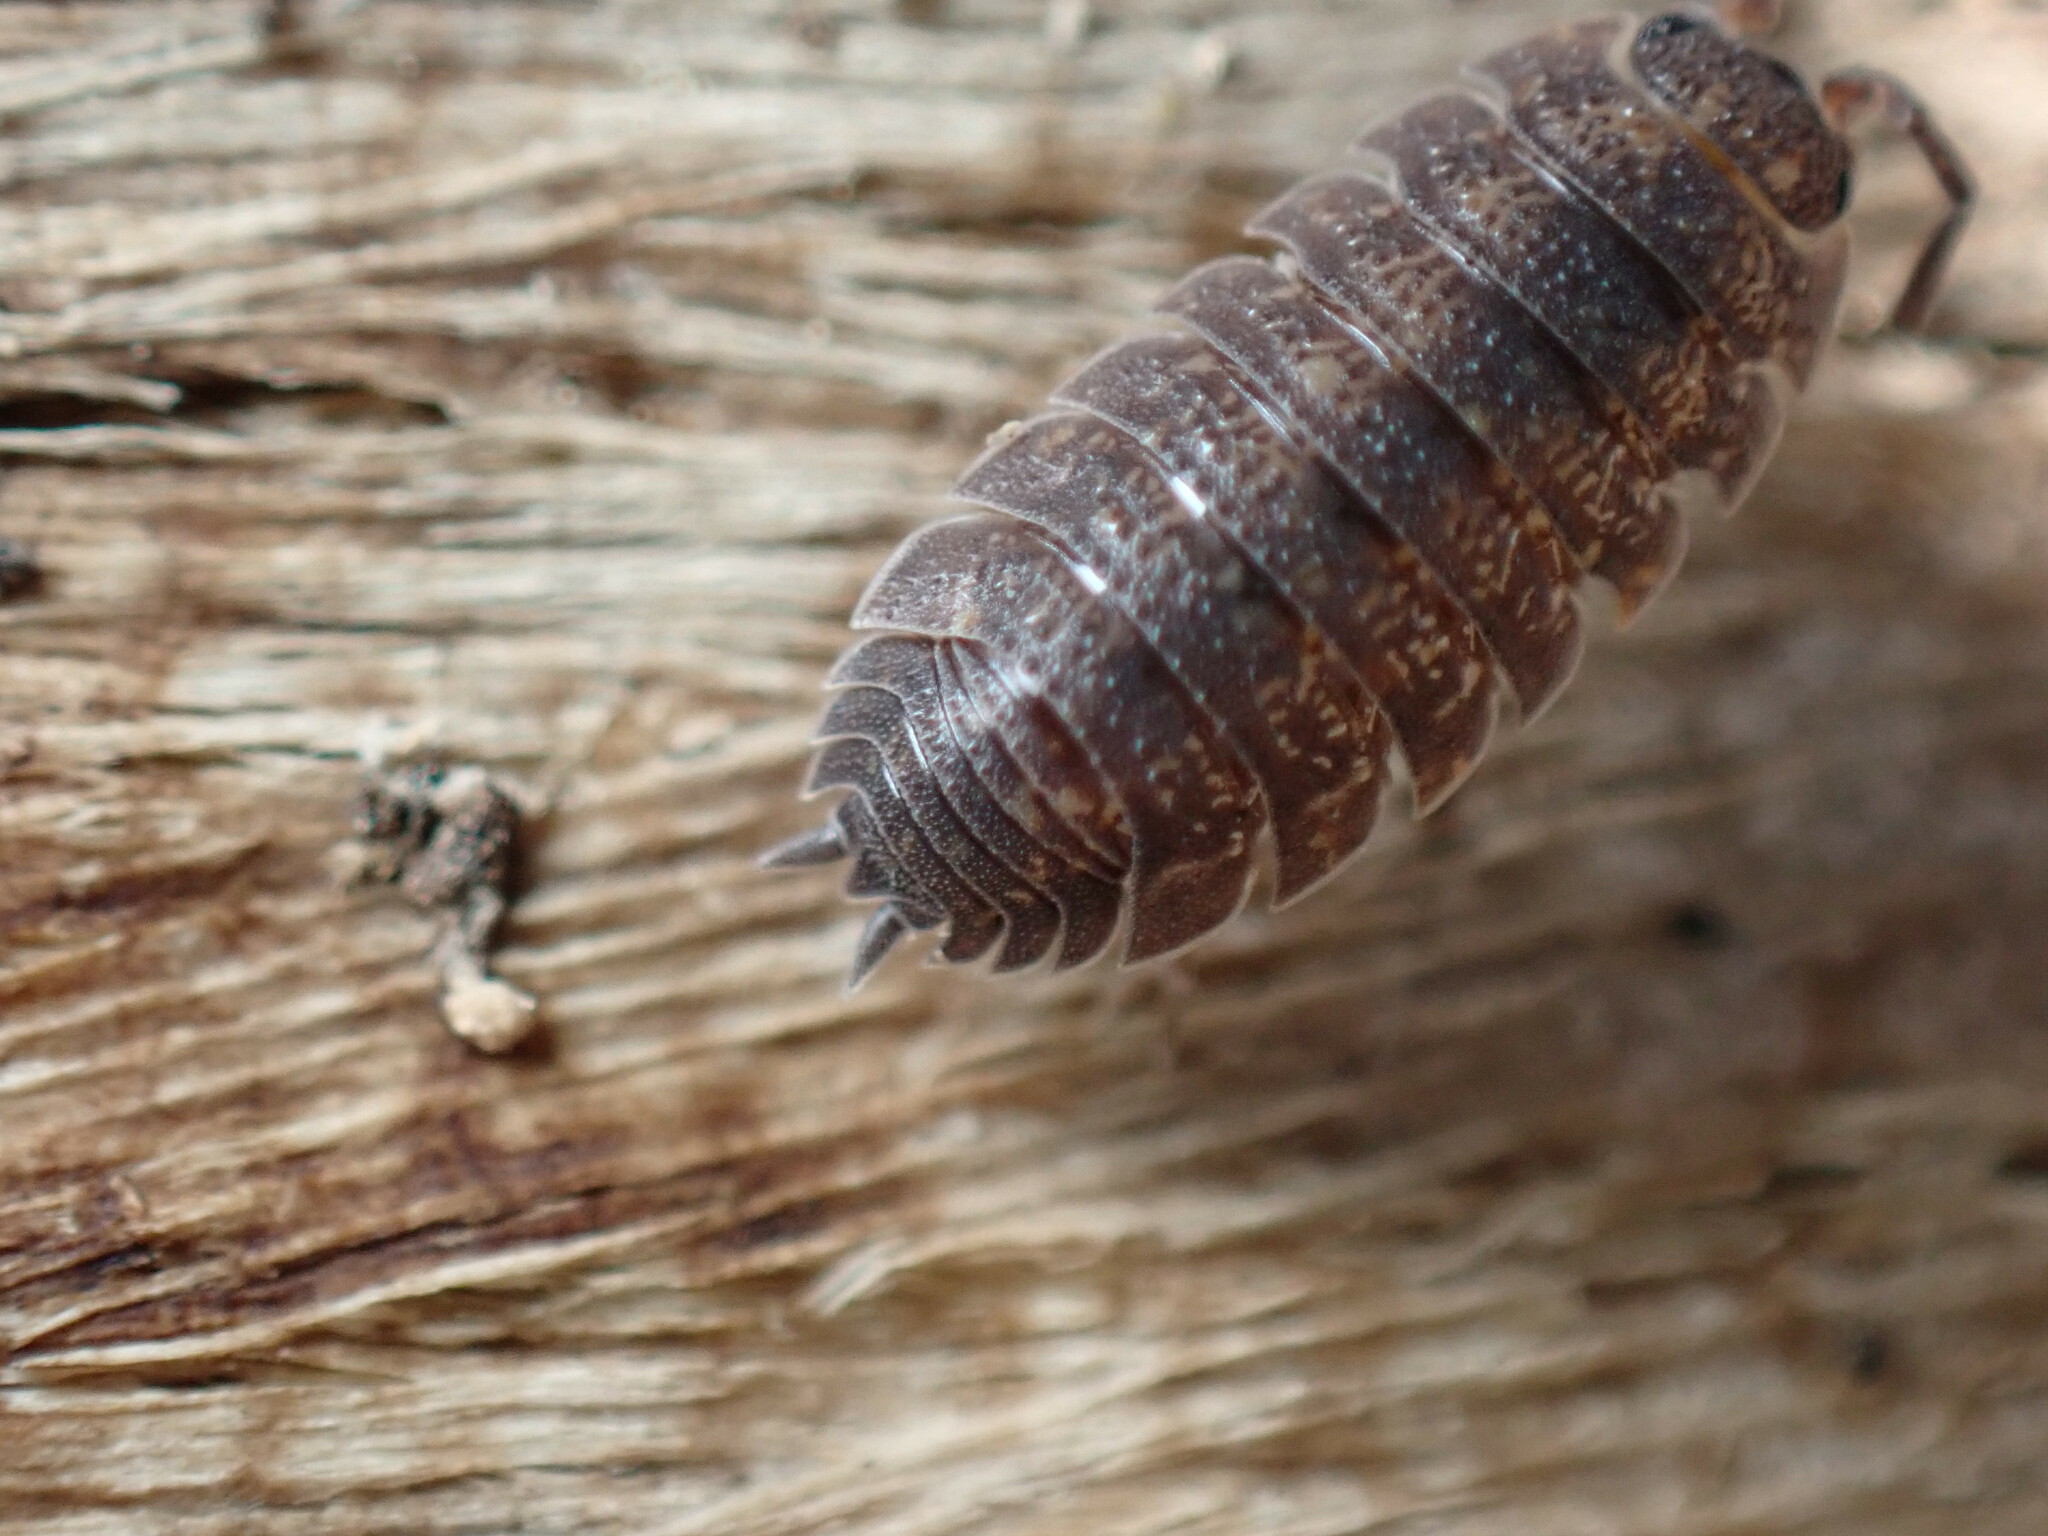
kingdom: Animalia
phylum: Arthropoda
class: Malacostraca
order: Isopoda
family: Porcellionidae
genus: Porcellio
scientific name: Porcellio scaber
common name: Common rough woodlouse
